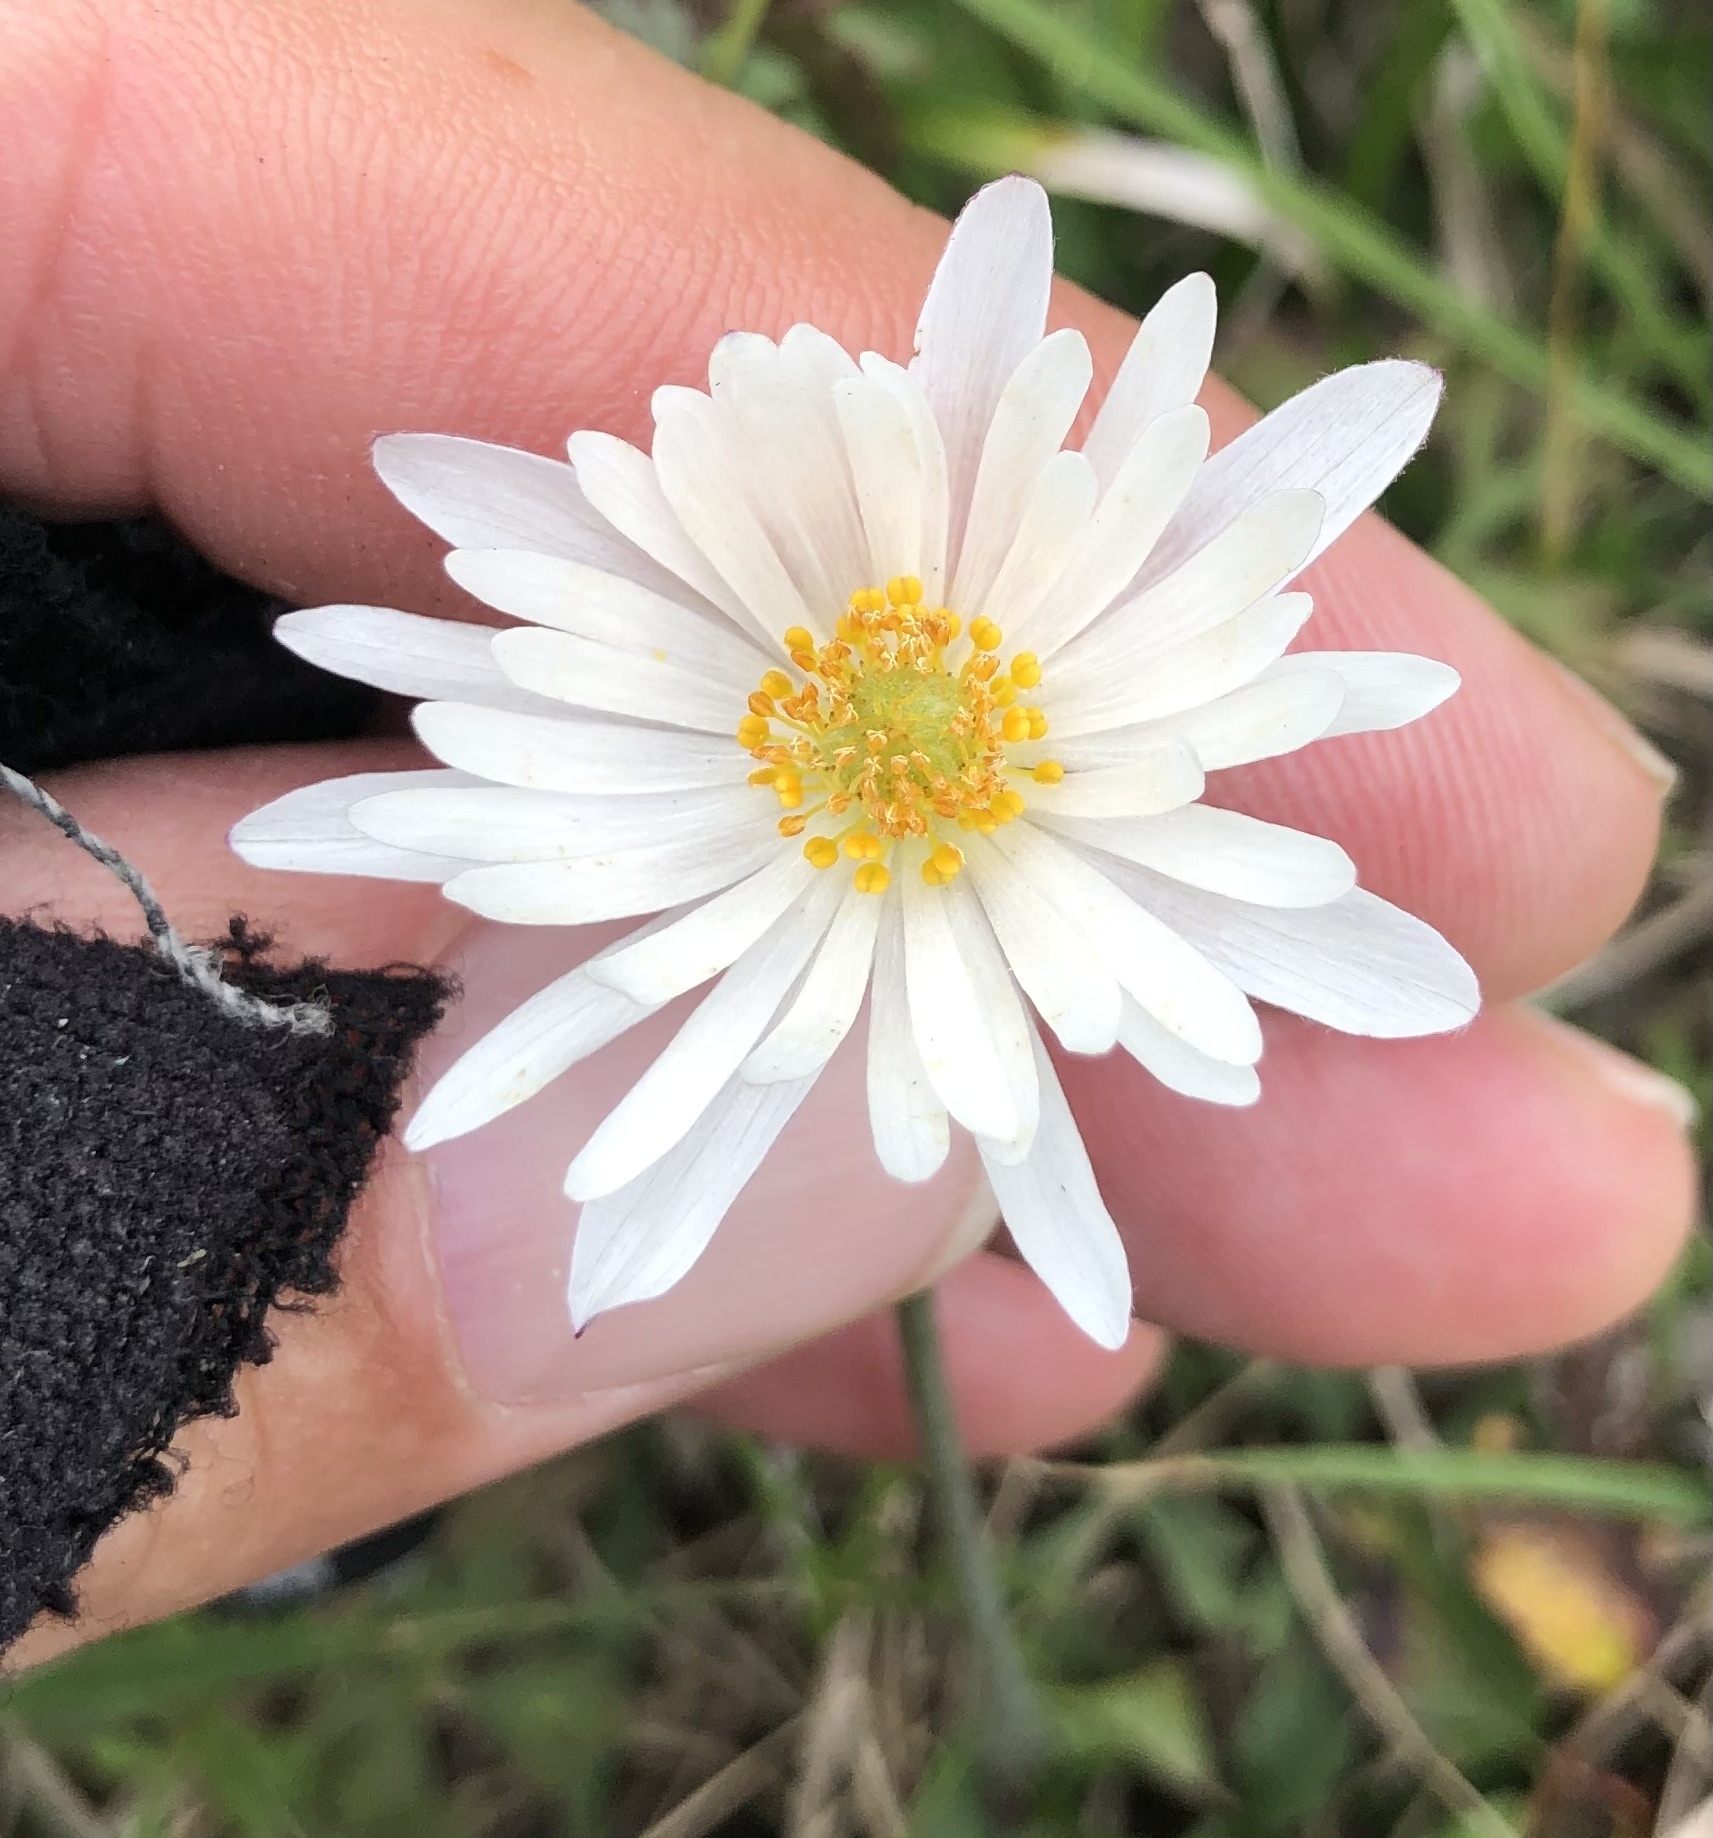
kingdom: Plantae
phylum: Tracheophyta
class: Magnoliopsida
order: Ranunculales
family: Ranunculaceae
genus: Anemone
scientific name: Anemone caroliniana
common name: Carolina anemone
